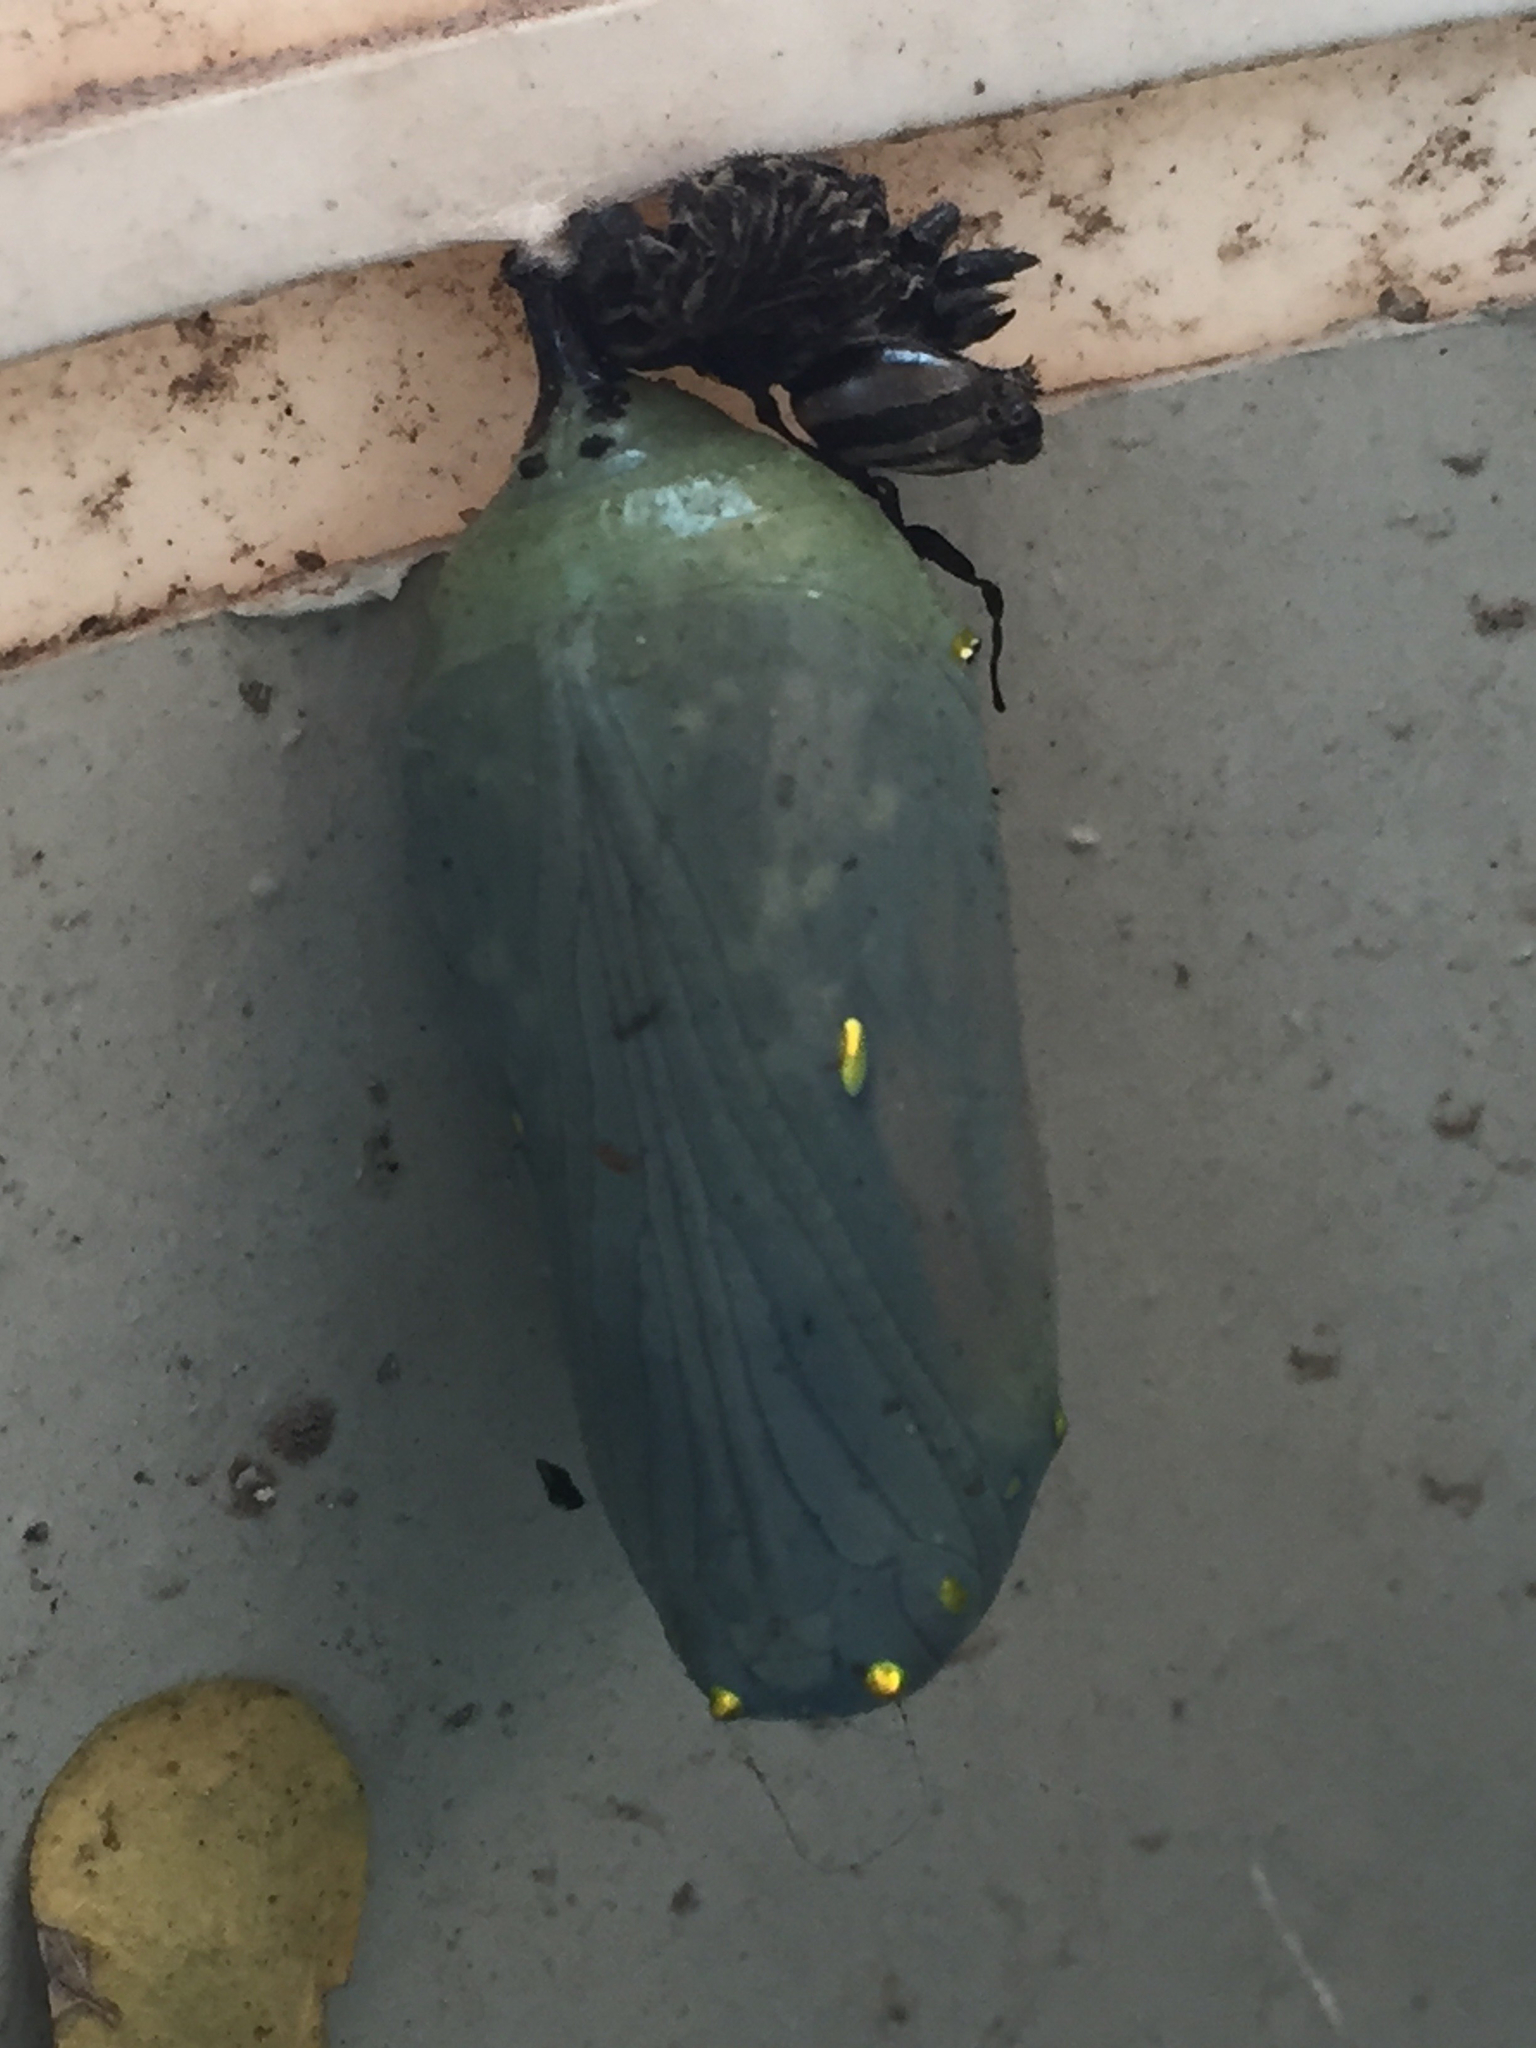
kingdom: Animalia
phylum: Arthropoda
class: Insecta
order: Lepidoptera
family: Nymphalidae
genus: Danaus
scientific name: Danaus plexippus
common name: Monarch
